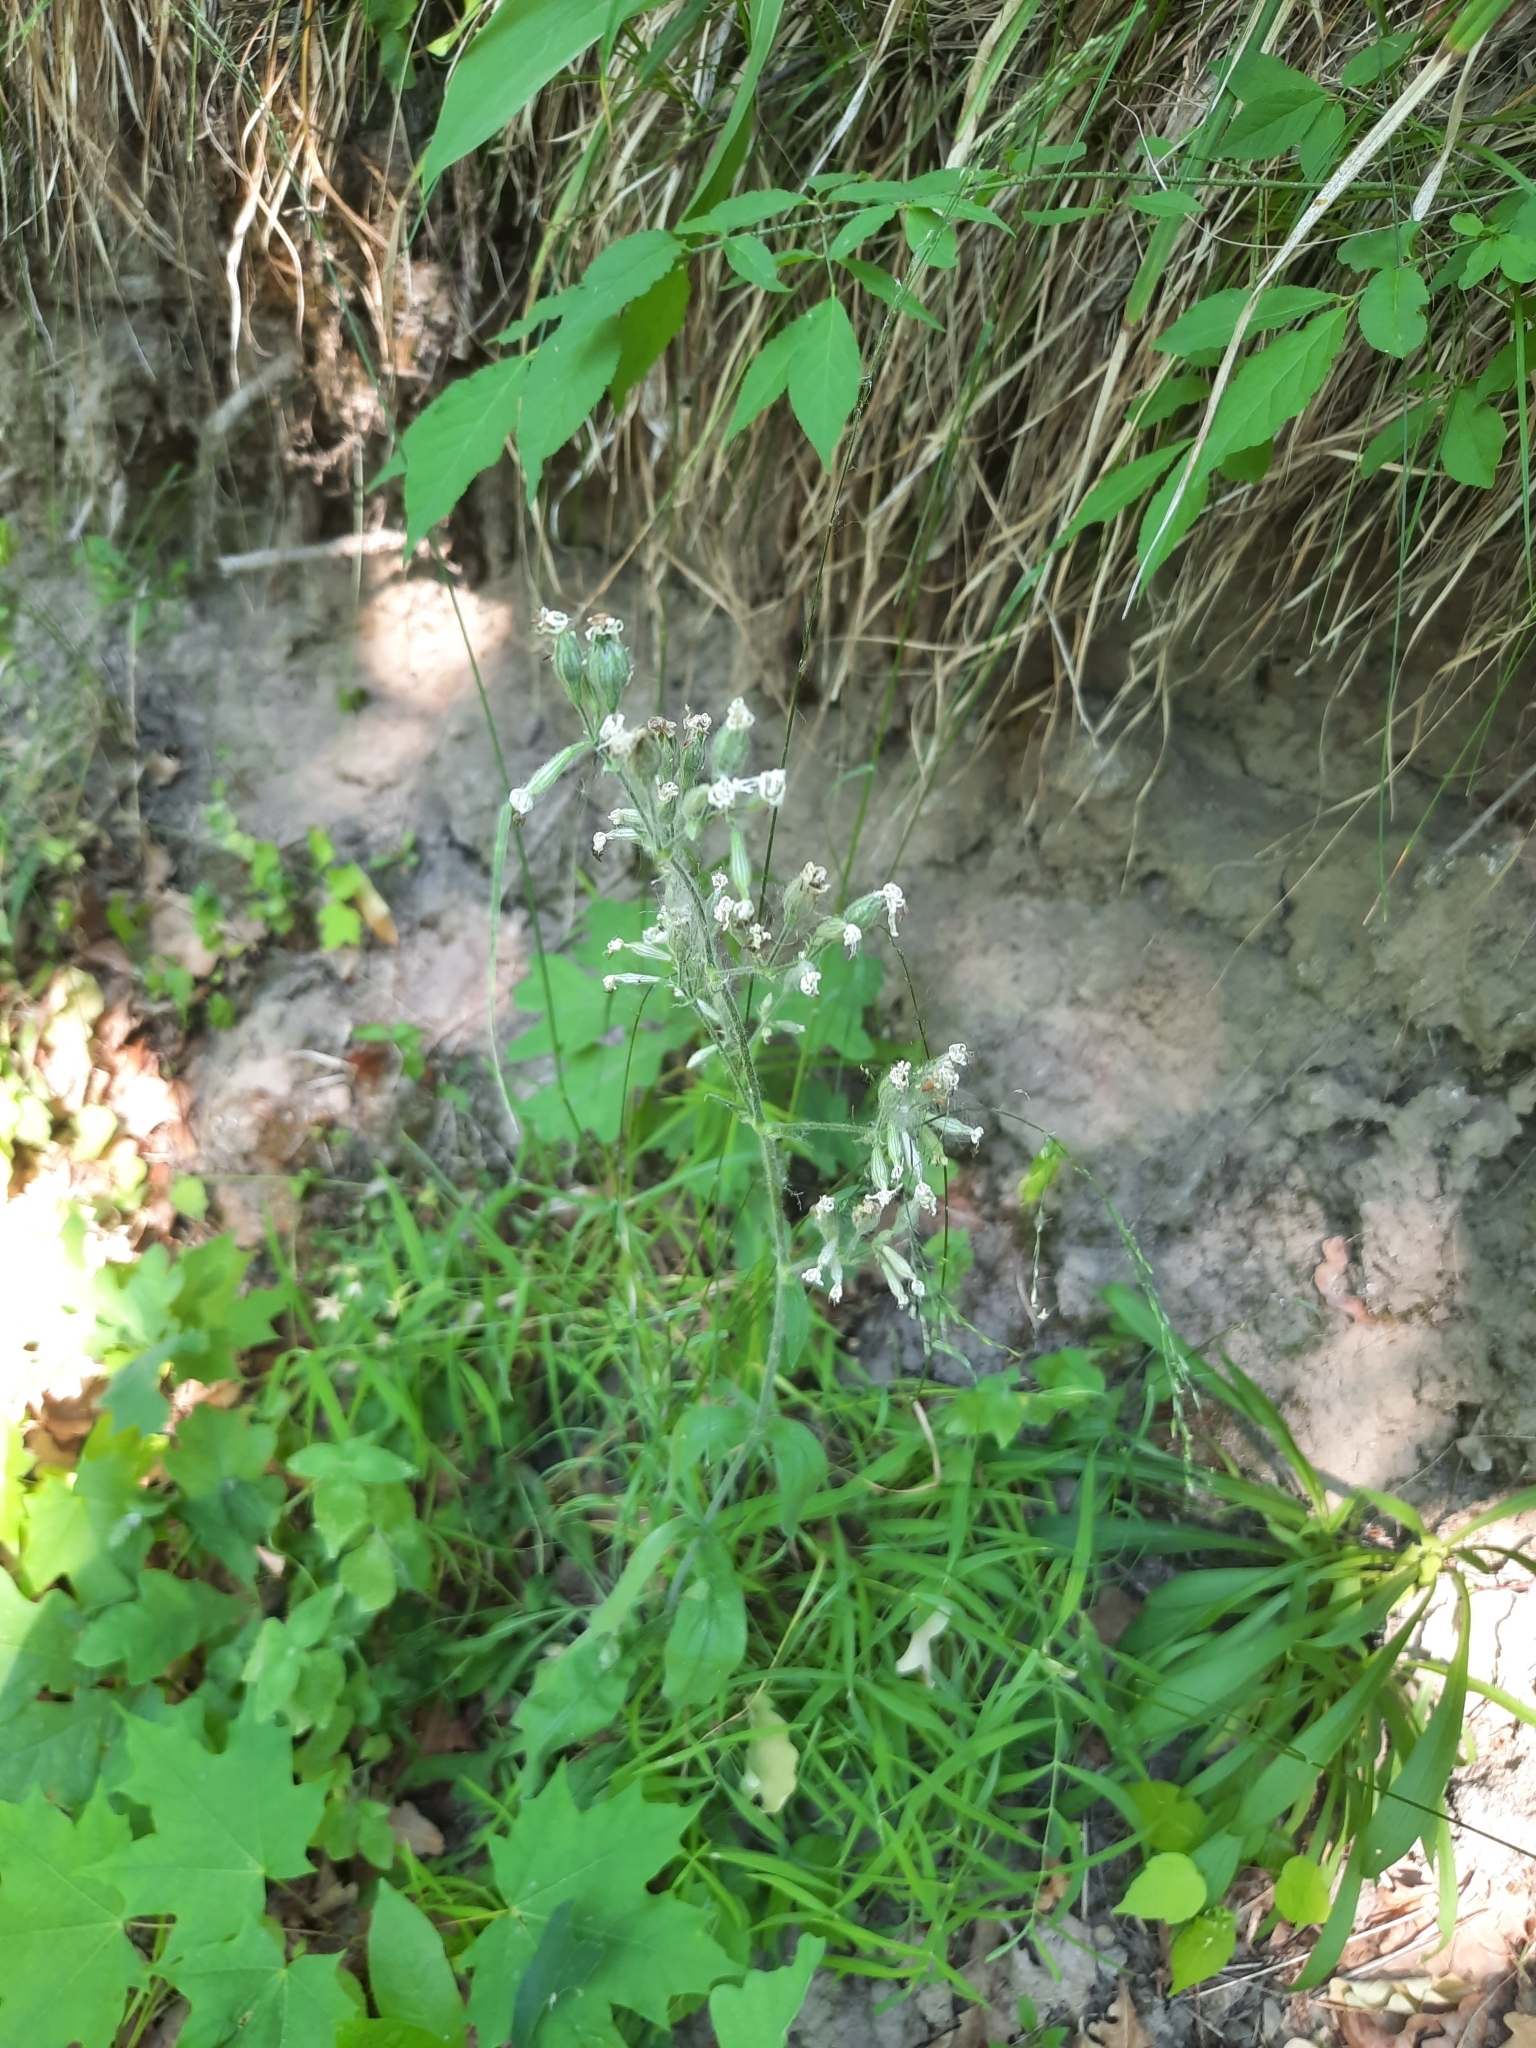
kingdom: Plantae
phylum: Tracheophyta
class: Magnoliopsida
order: Caryophyllales
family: Caryophyllaceae
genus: Silene
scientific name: Silene nutans
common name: Nottingham catchfly
